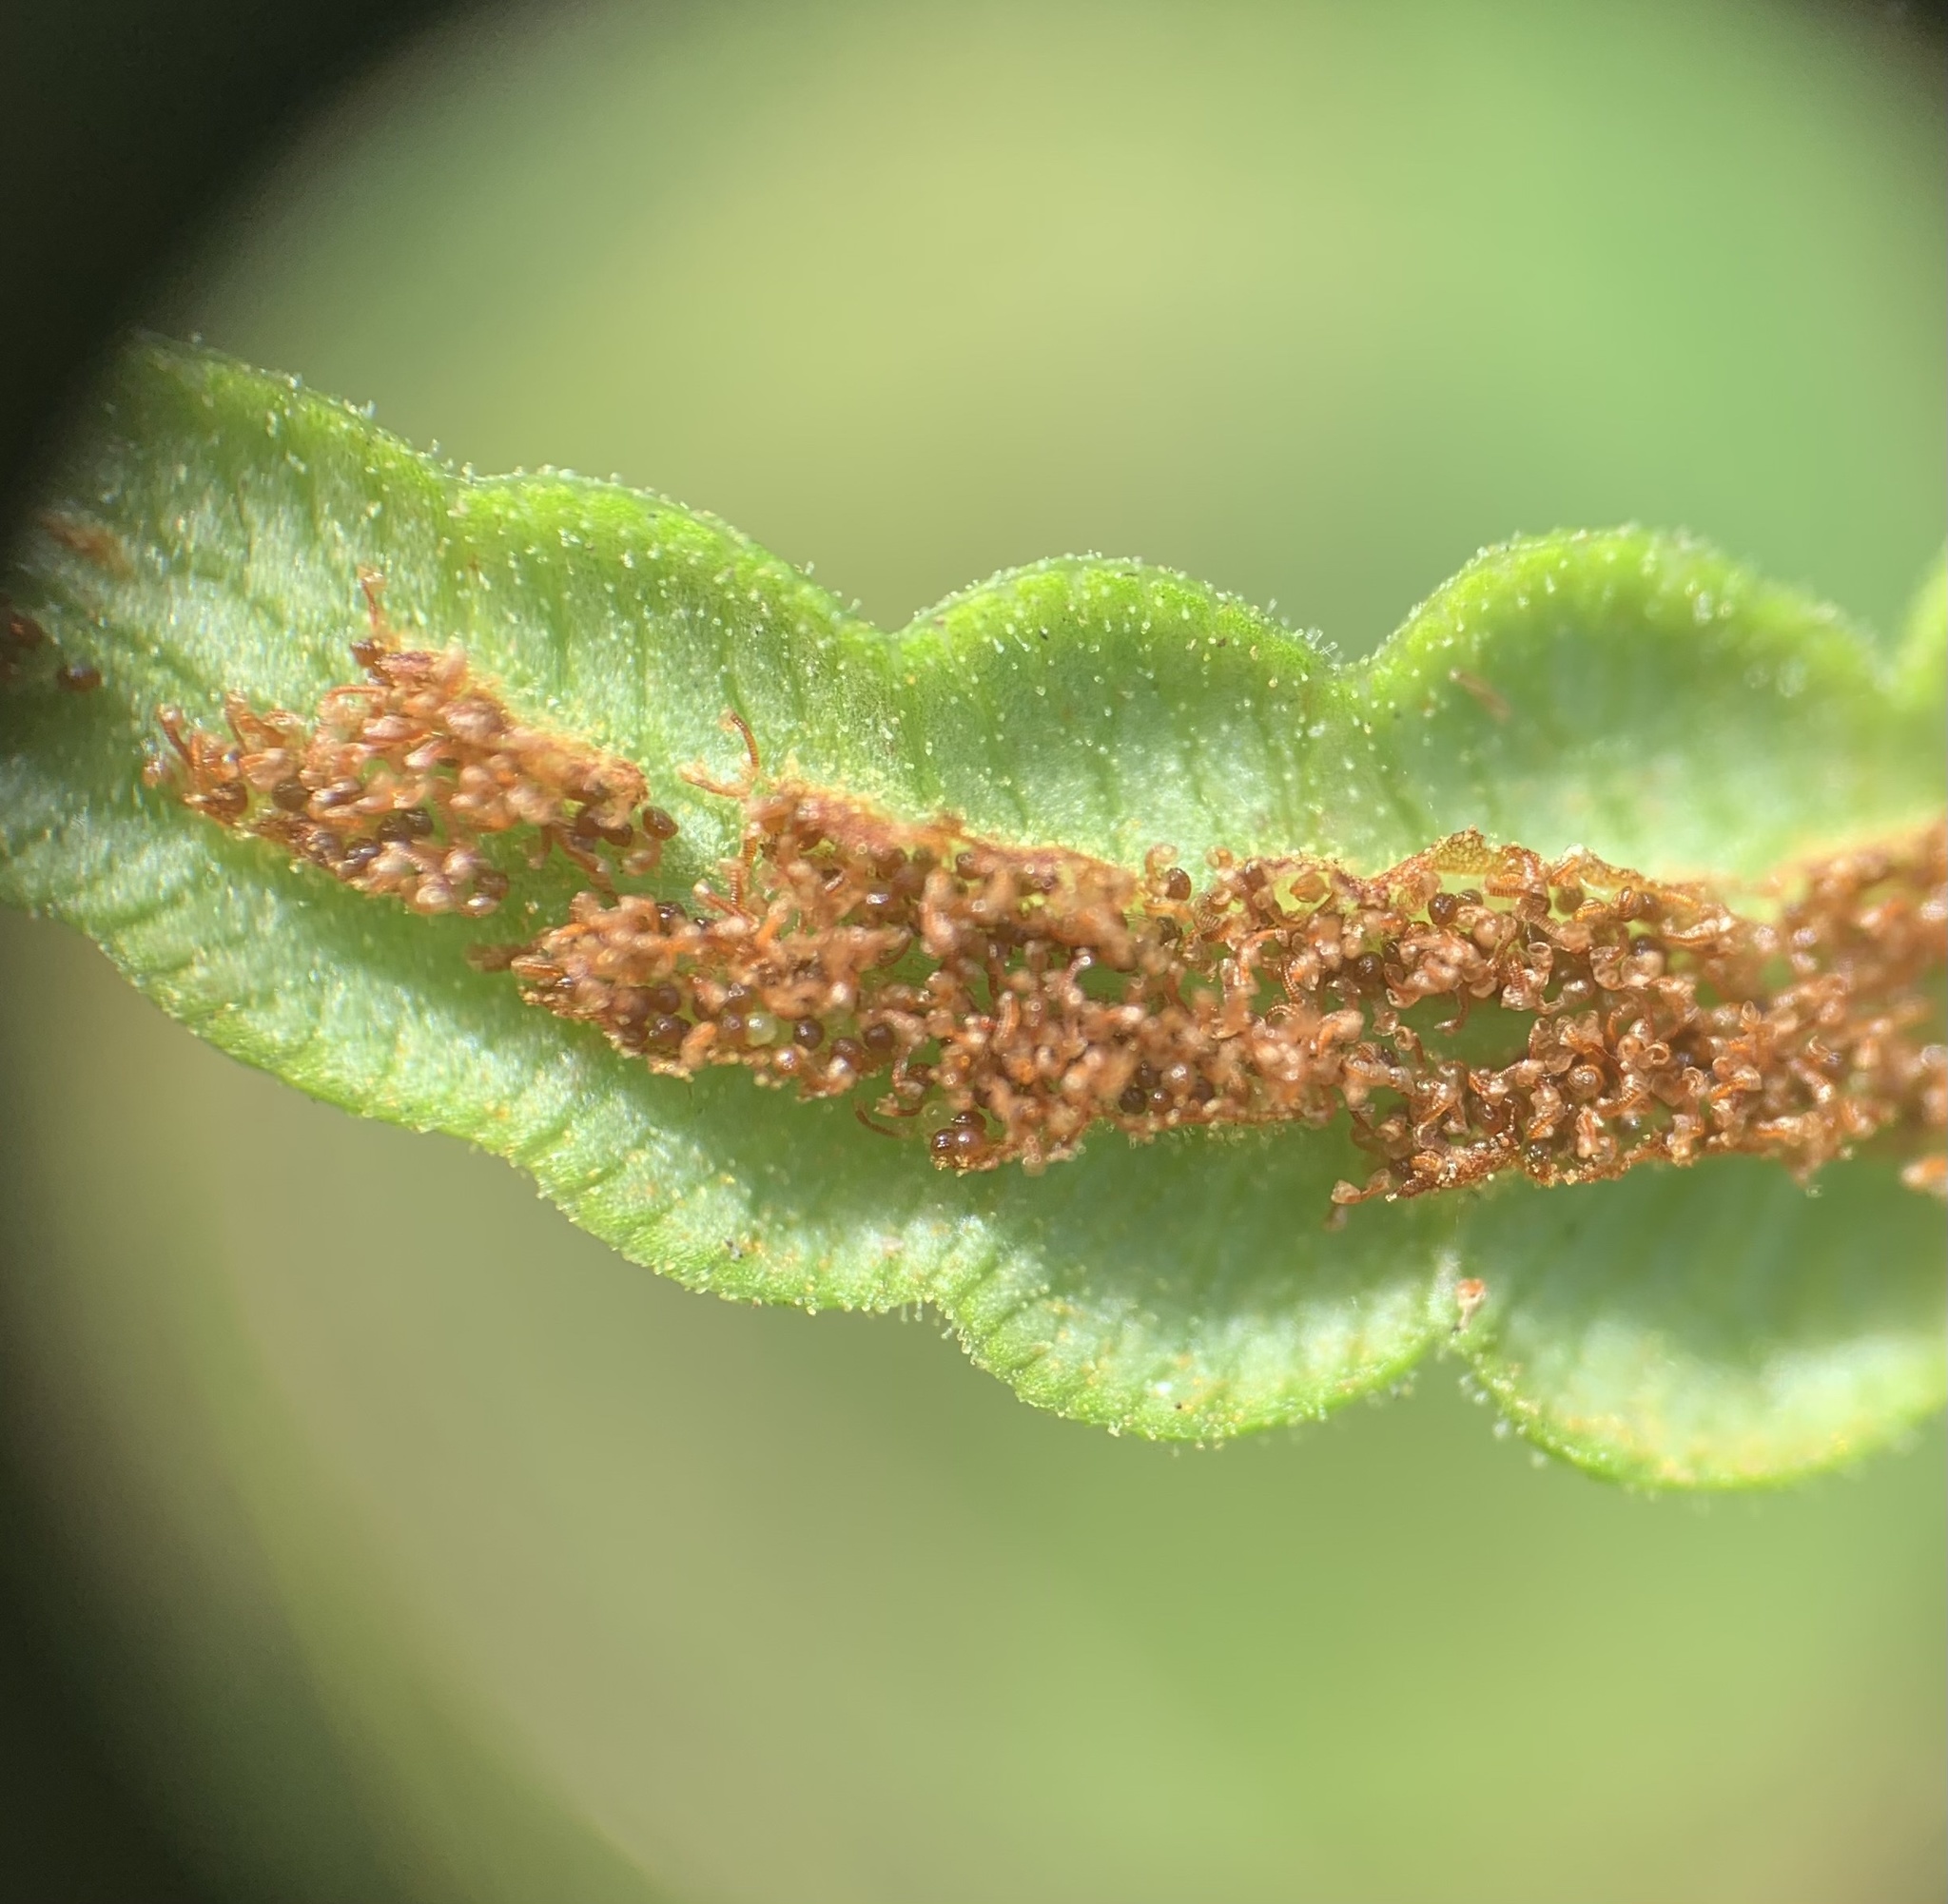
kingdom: Plantae
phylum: Tracheophyta
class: Polypodiopsida
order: Polypodiales
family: Blechnaceae
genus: Anchistea
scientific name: Anchistea virginica
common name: Virginia chain fern
